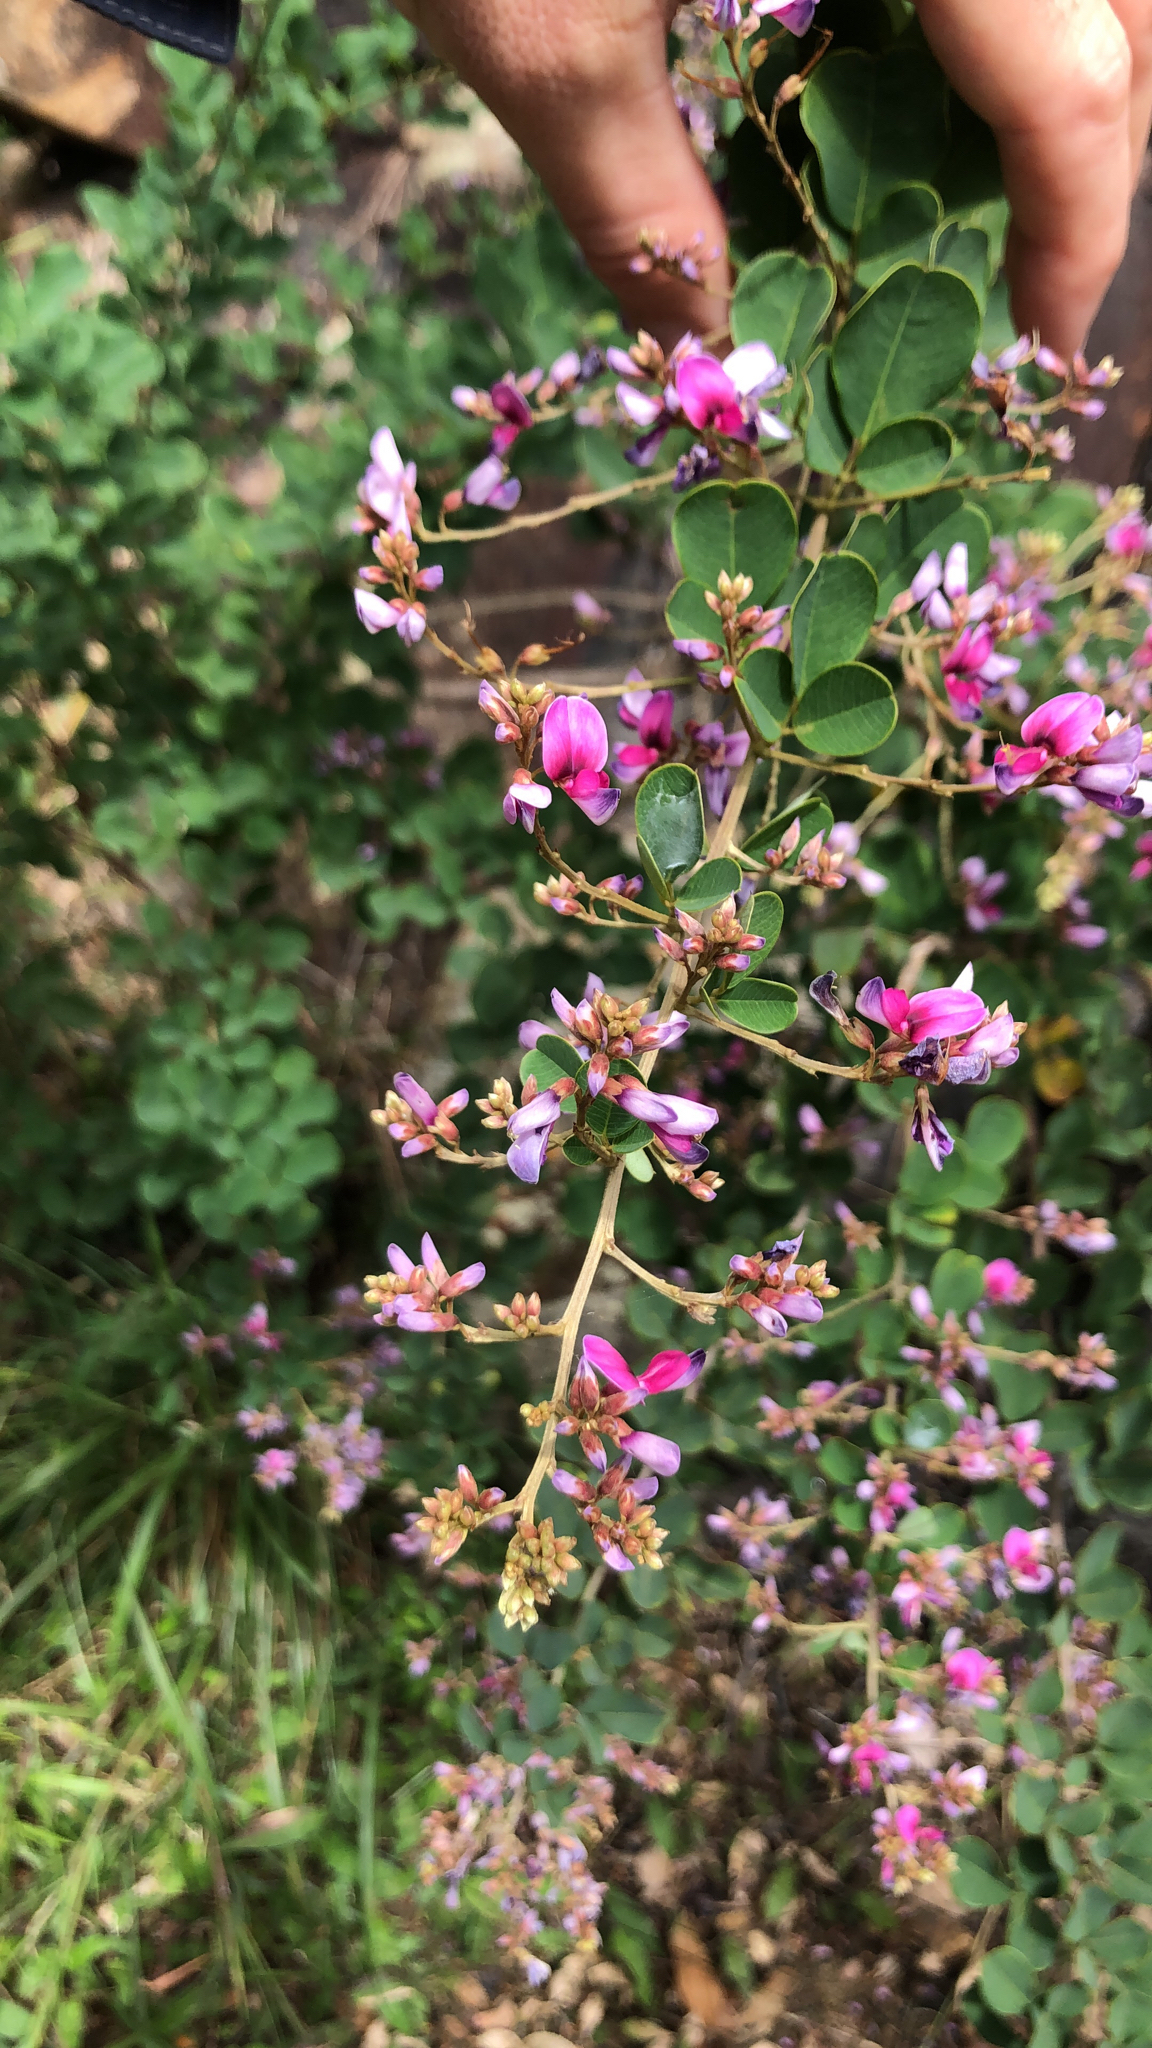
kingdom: Plantae
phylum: Tracheophyta
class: Magnoliopsida
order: Fabales
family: Fabaceae
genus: Lespedeza
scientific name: Lespedeza thunbergii
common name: Thunberg's lespedeza
